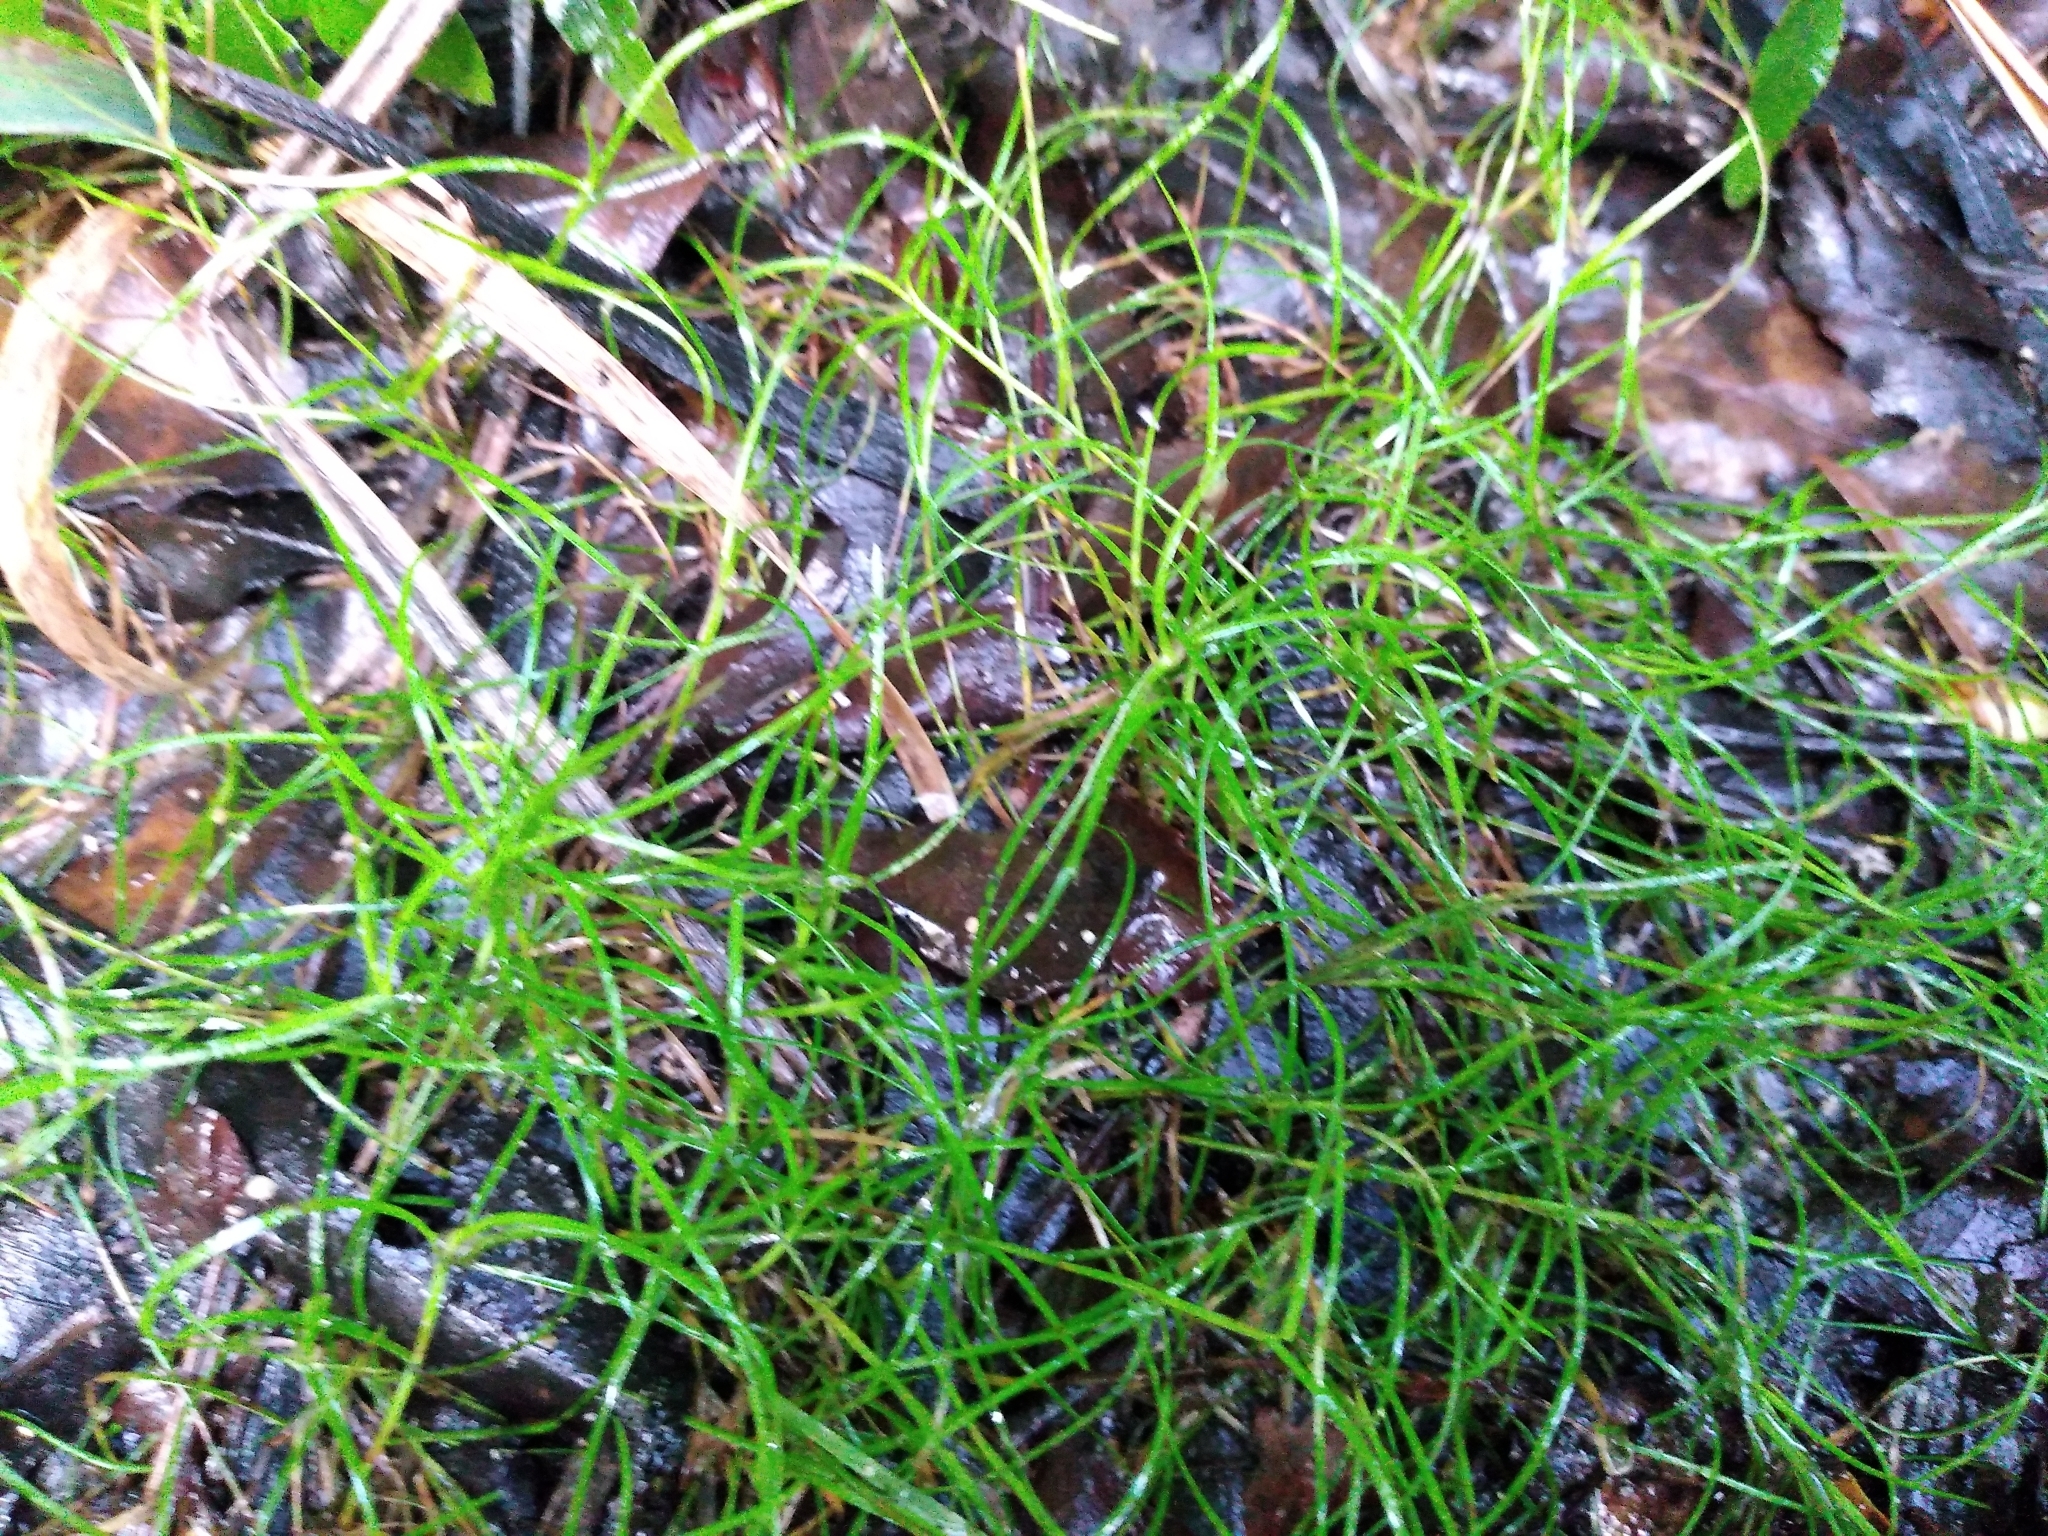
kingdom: Plantae
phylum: Tracheophyta
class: Liliopsida
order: Poales
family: Cyperaceae
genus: Schoenus
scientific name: Schoenus maschalinus
